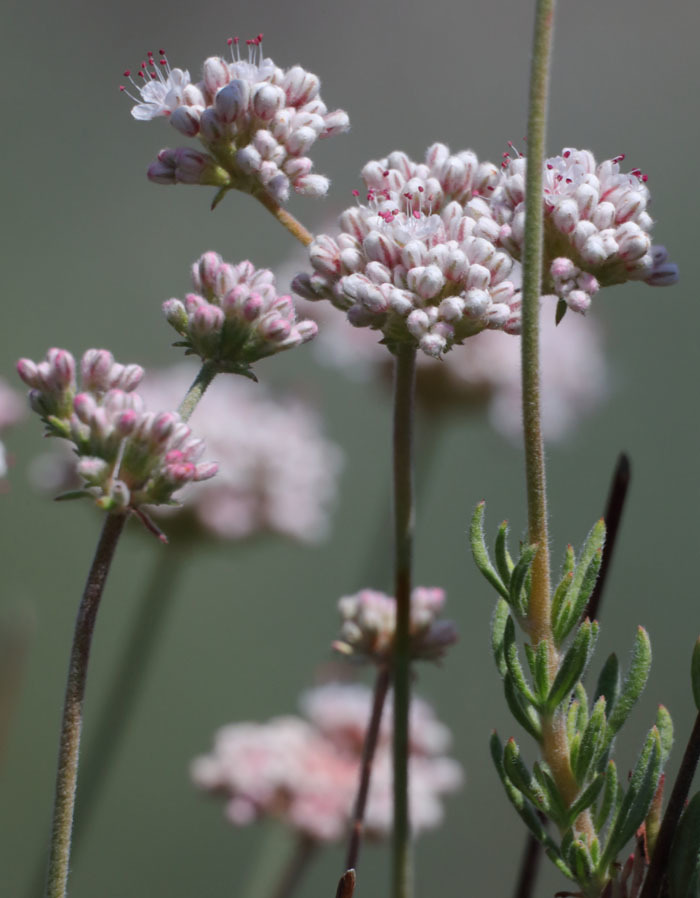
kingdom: Plantae
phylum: Tracheophyta
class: Magnoliopsida
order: Caryophyllales
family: Polygonaceae
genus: Eriogonum
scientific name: Eriogonum fasciculatum
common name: California wild buckwheat
